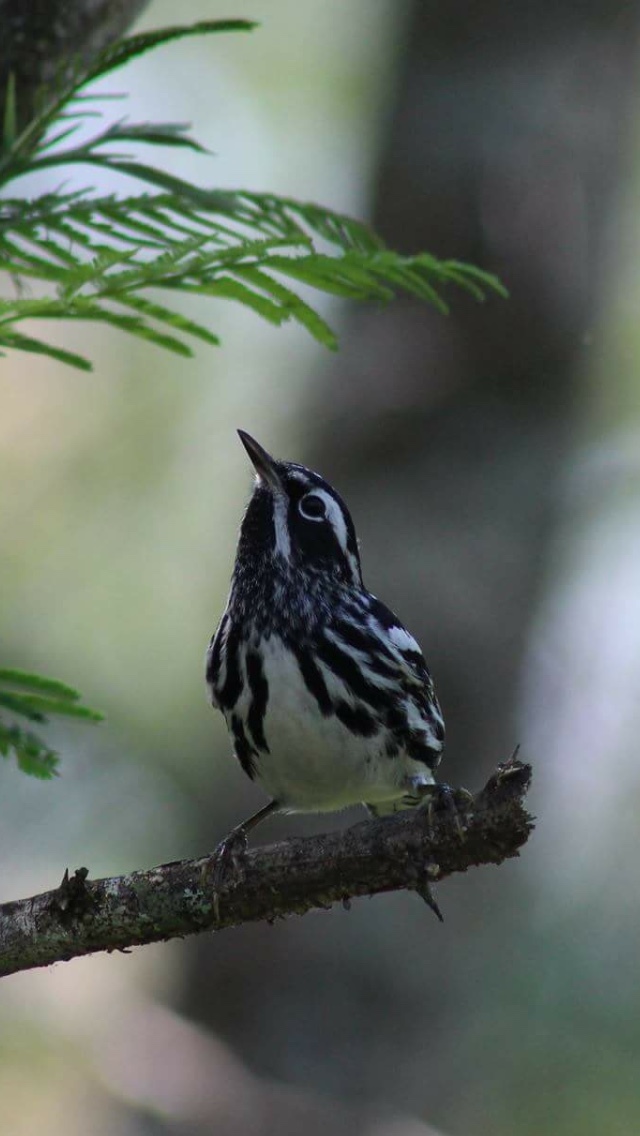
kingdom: Animalia
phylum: Chordata
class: Aves
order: Passeriformes
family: Parulidae
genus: Mniotilta
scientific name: Mniotilta varia
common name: Black-and-white warbler
